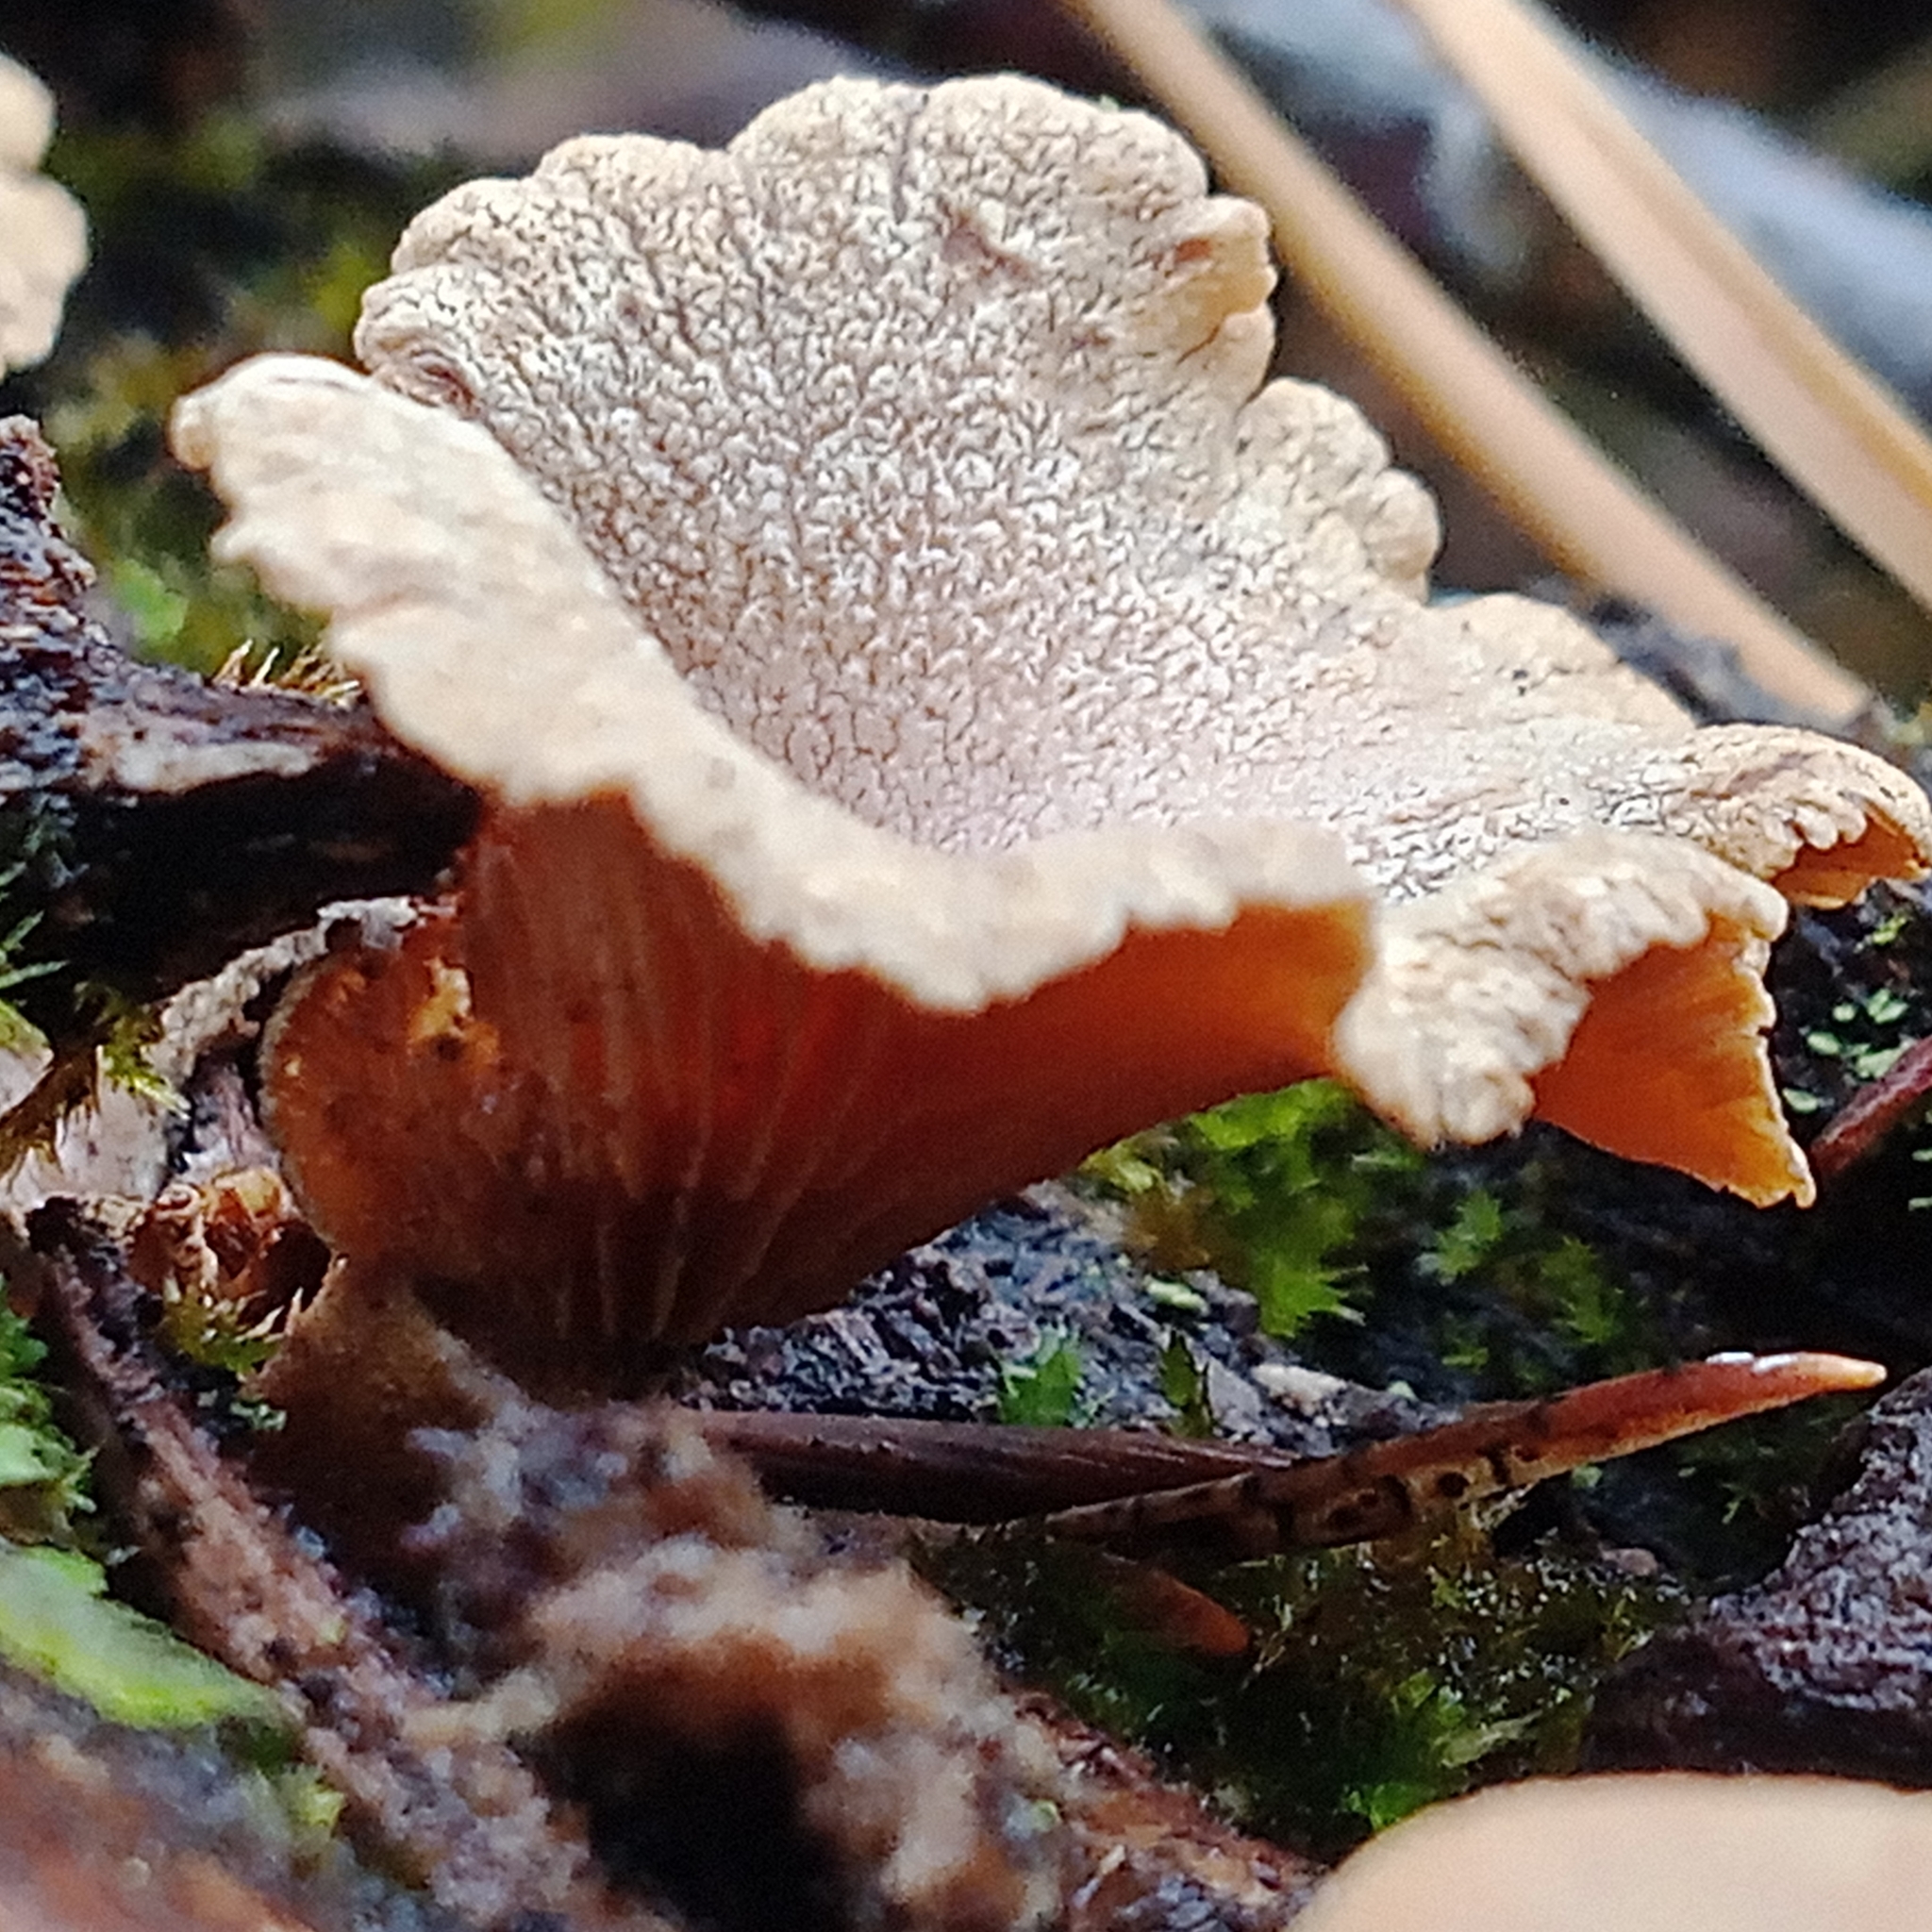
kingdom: Fungi
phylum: Basidiomycota
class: Agaricomycetes
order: Agaricales
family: Mycenaceae
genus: Panellus
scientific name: Panellus stipticus
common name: Bitter oysterling
